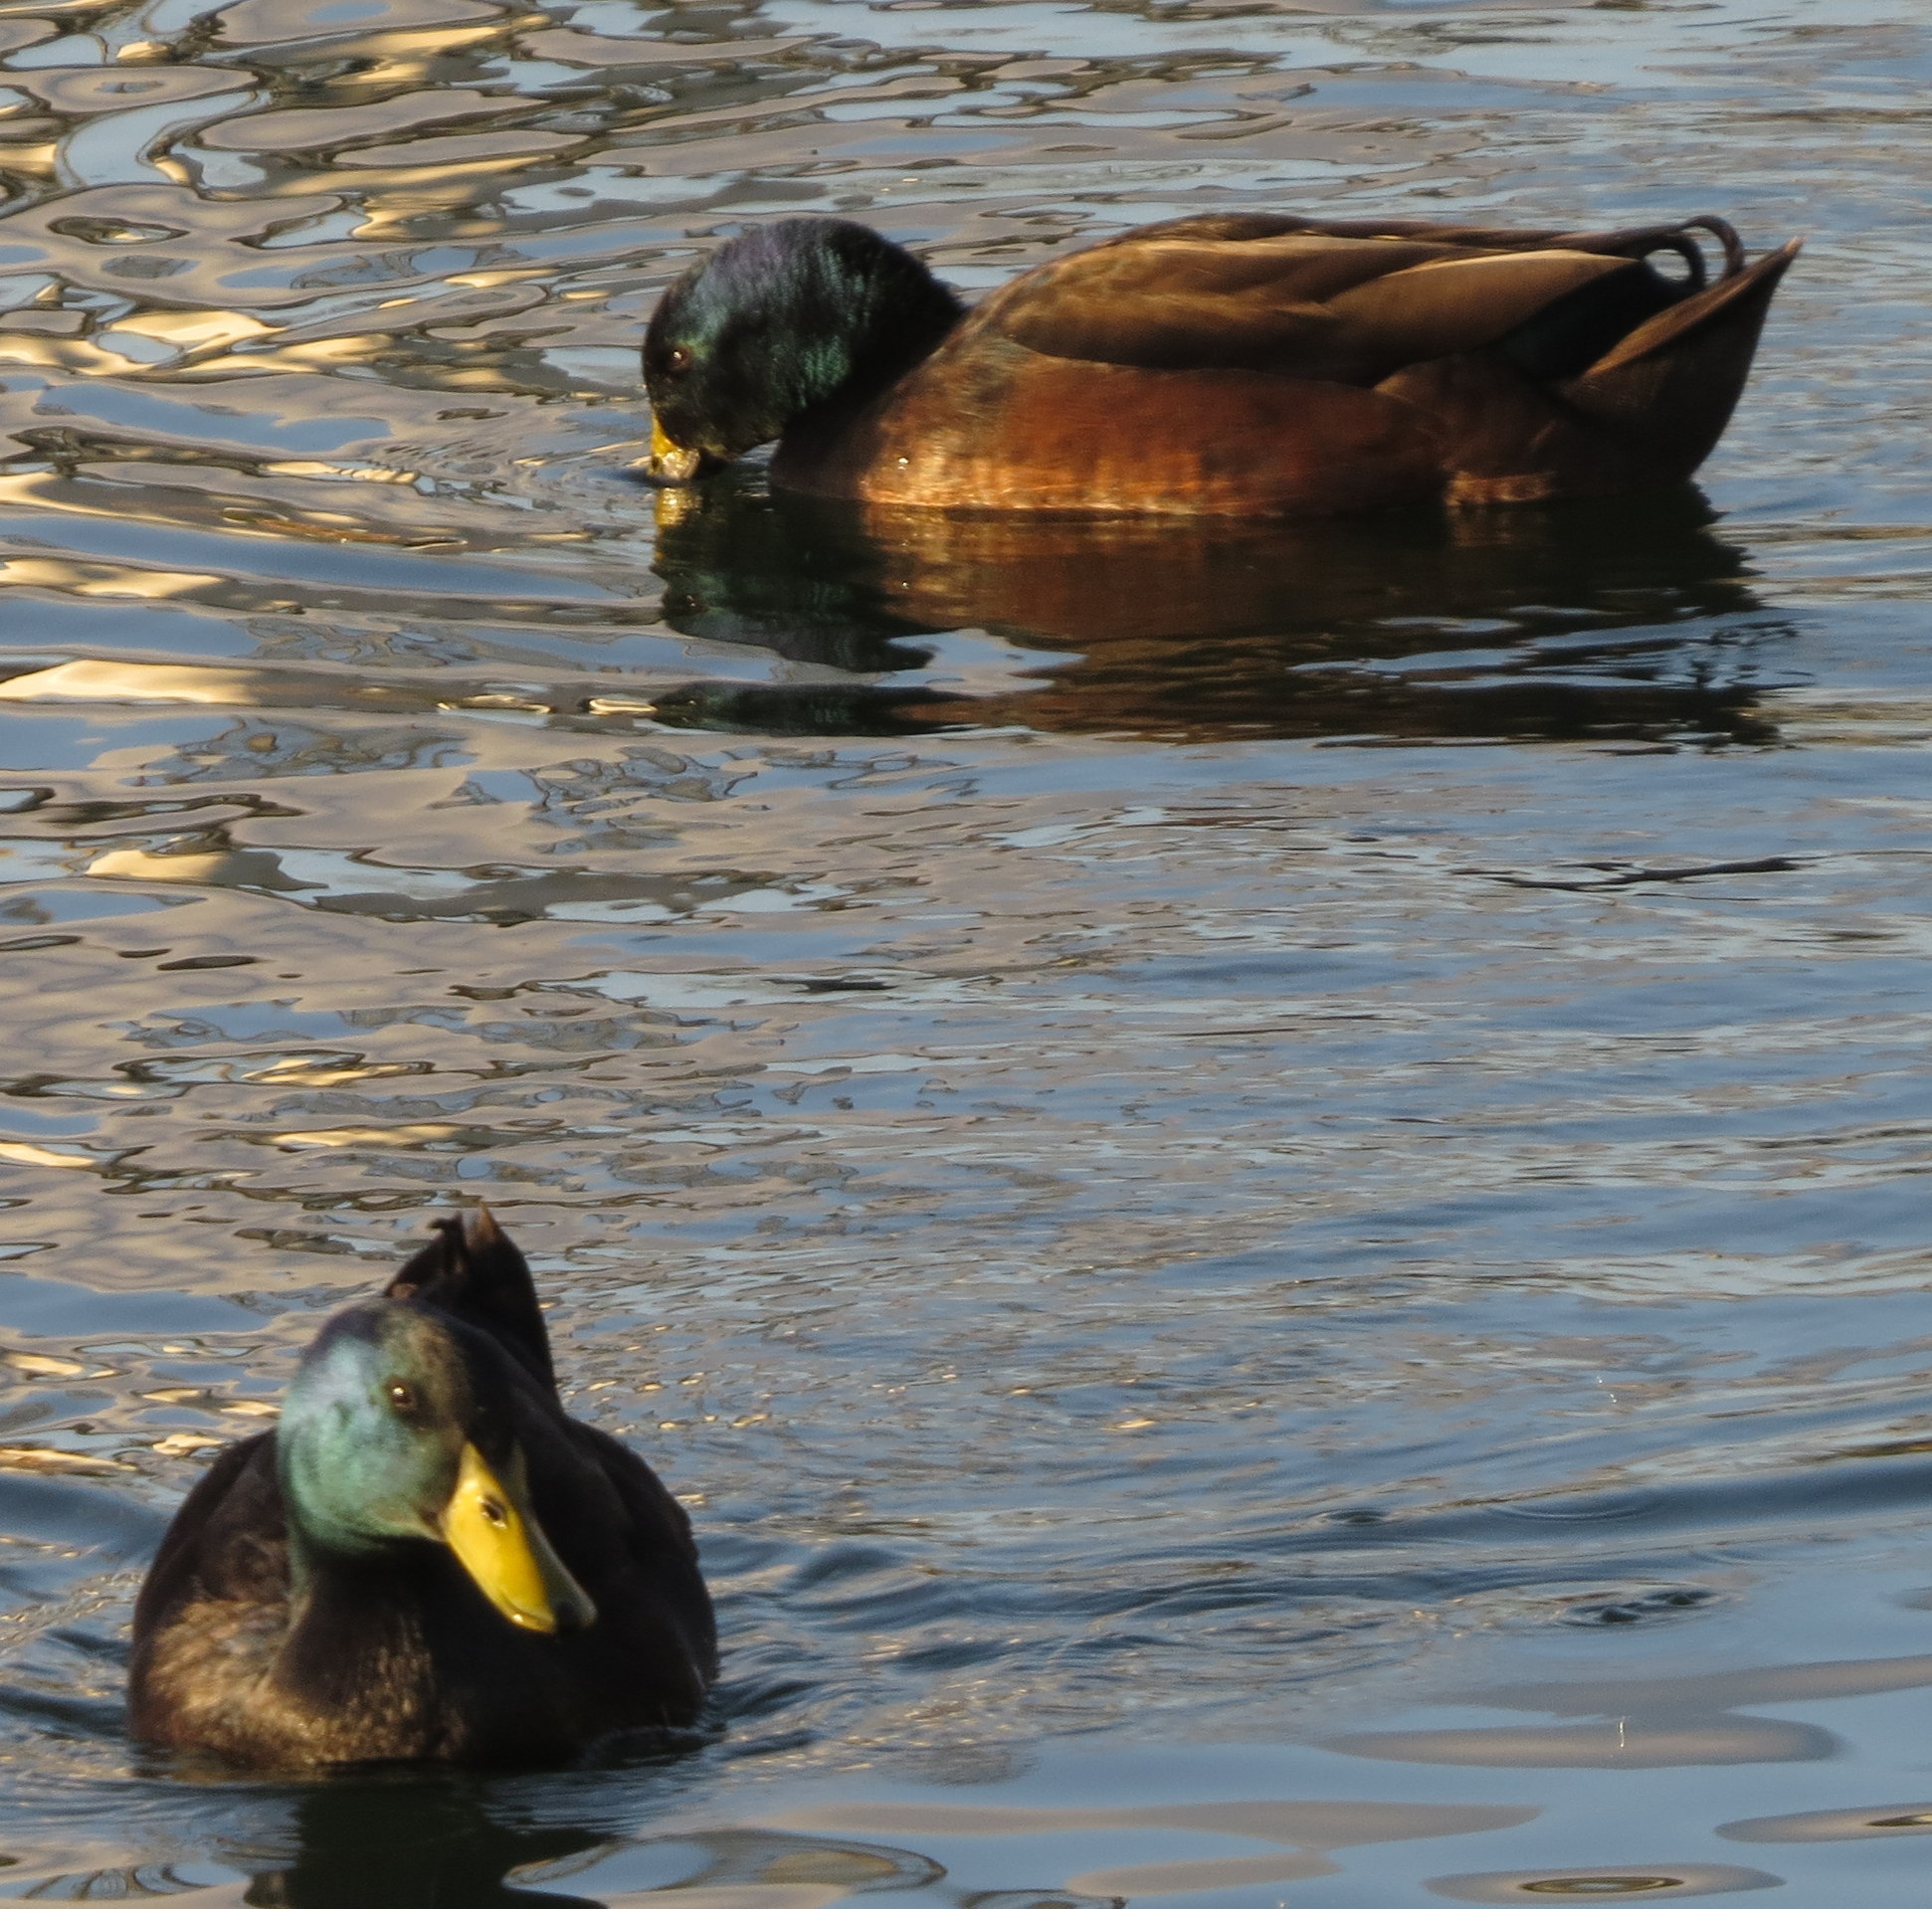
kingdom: Animalia
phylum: Chordata
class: Aves
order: Anseriformes
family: Anatidae
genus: Anas
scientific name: Anas platyrhynchos
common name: Mallard
